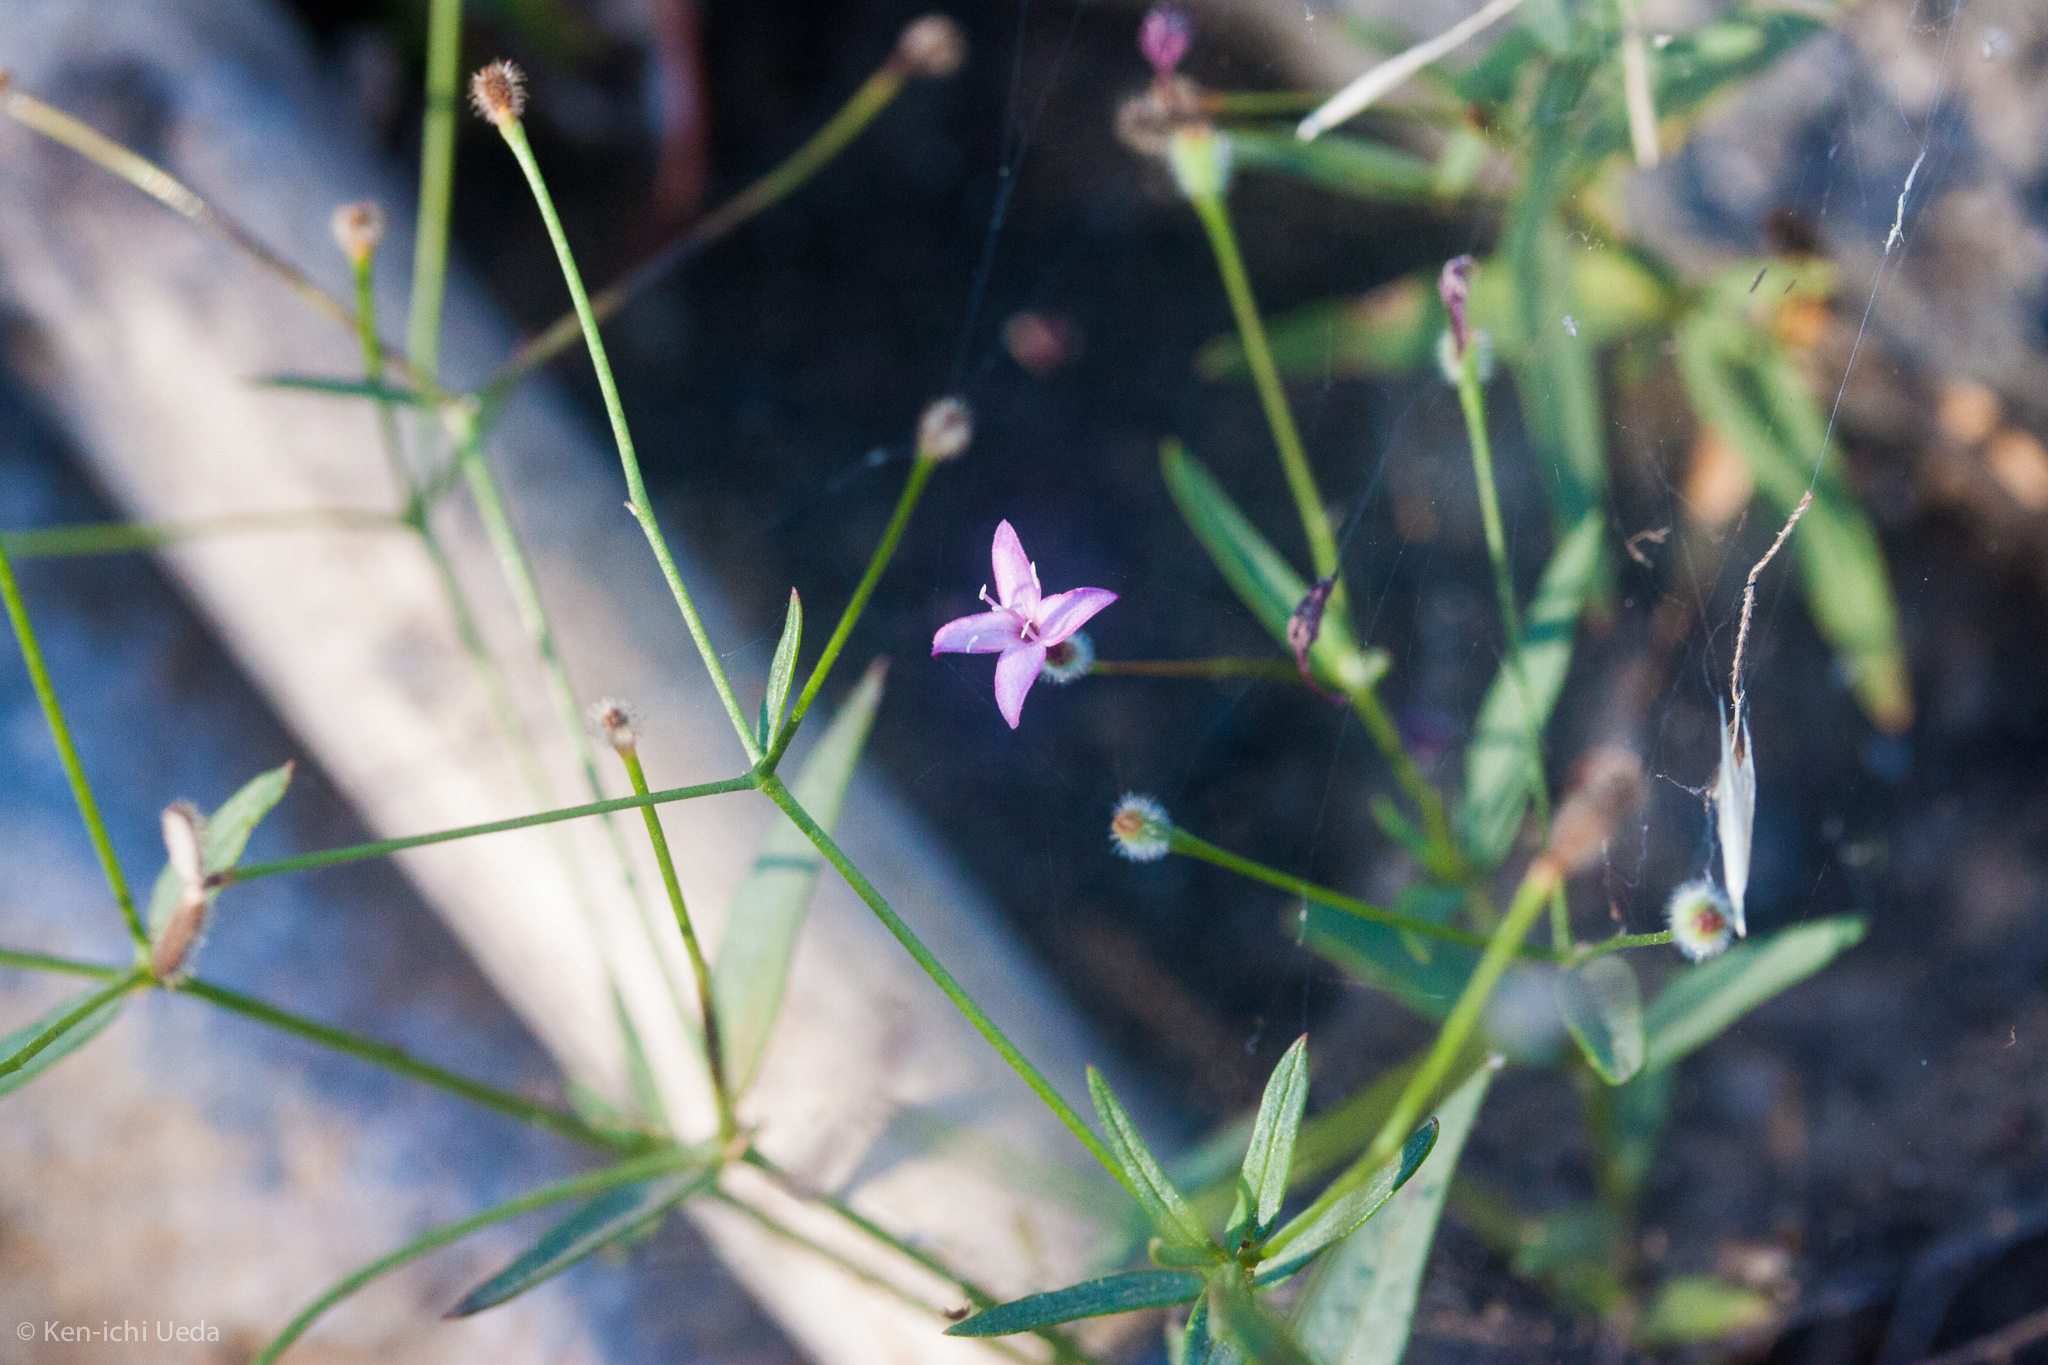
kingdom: Plantae
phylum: Tracheophyta
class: Magnoliopsida
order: Gentianales
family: Rubiaceae
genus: Kelloggia
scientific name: Kelloggia galioides
